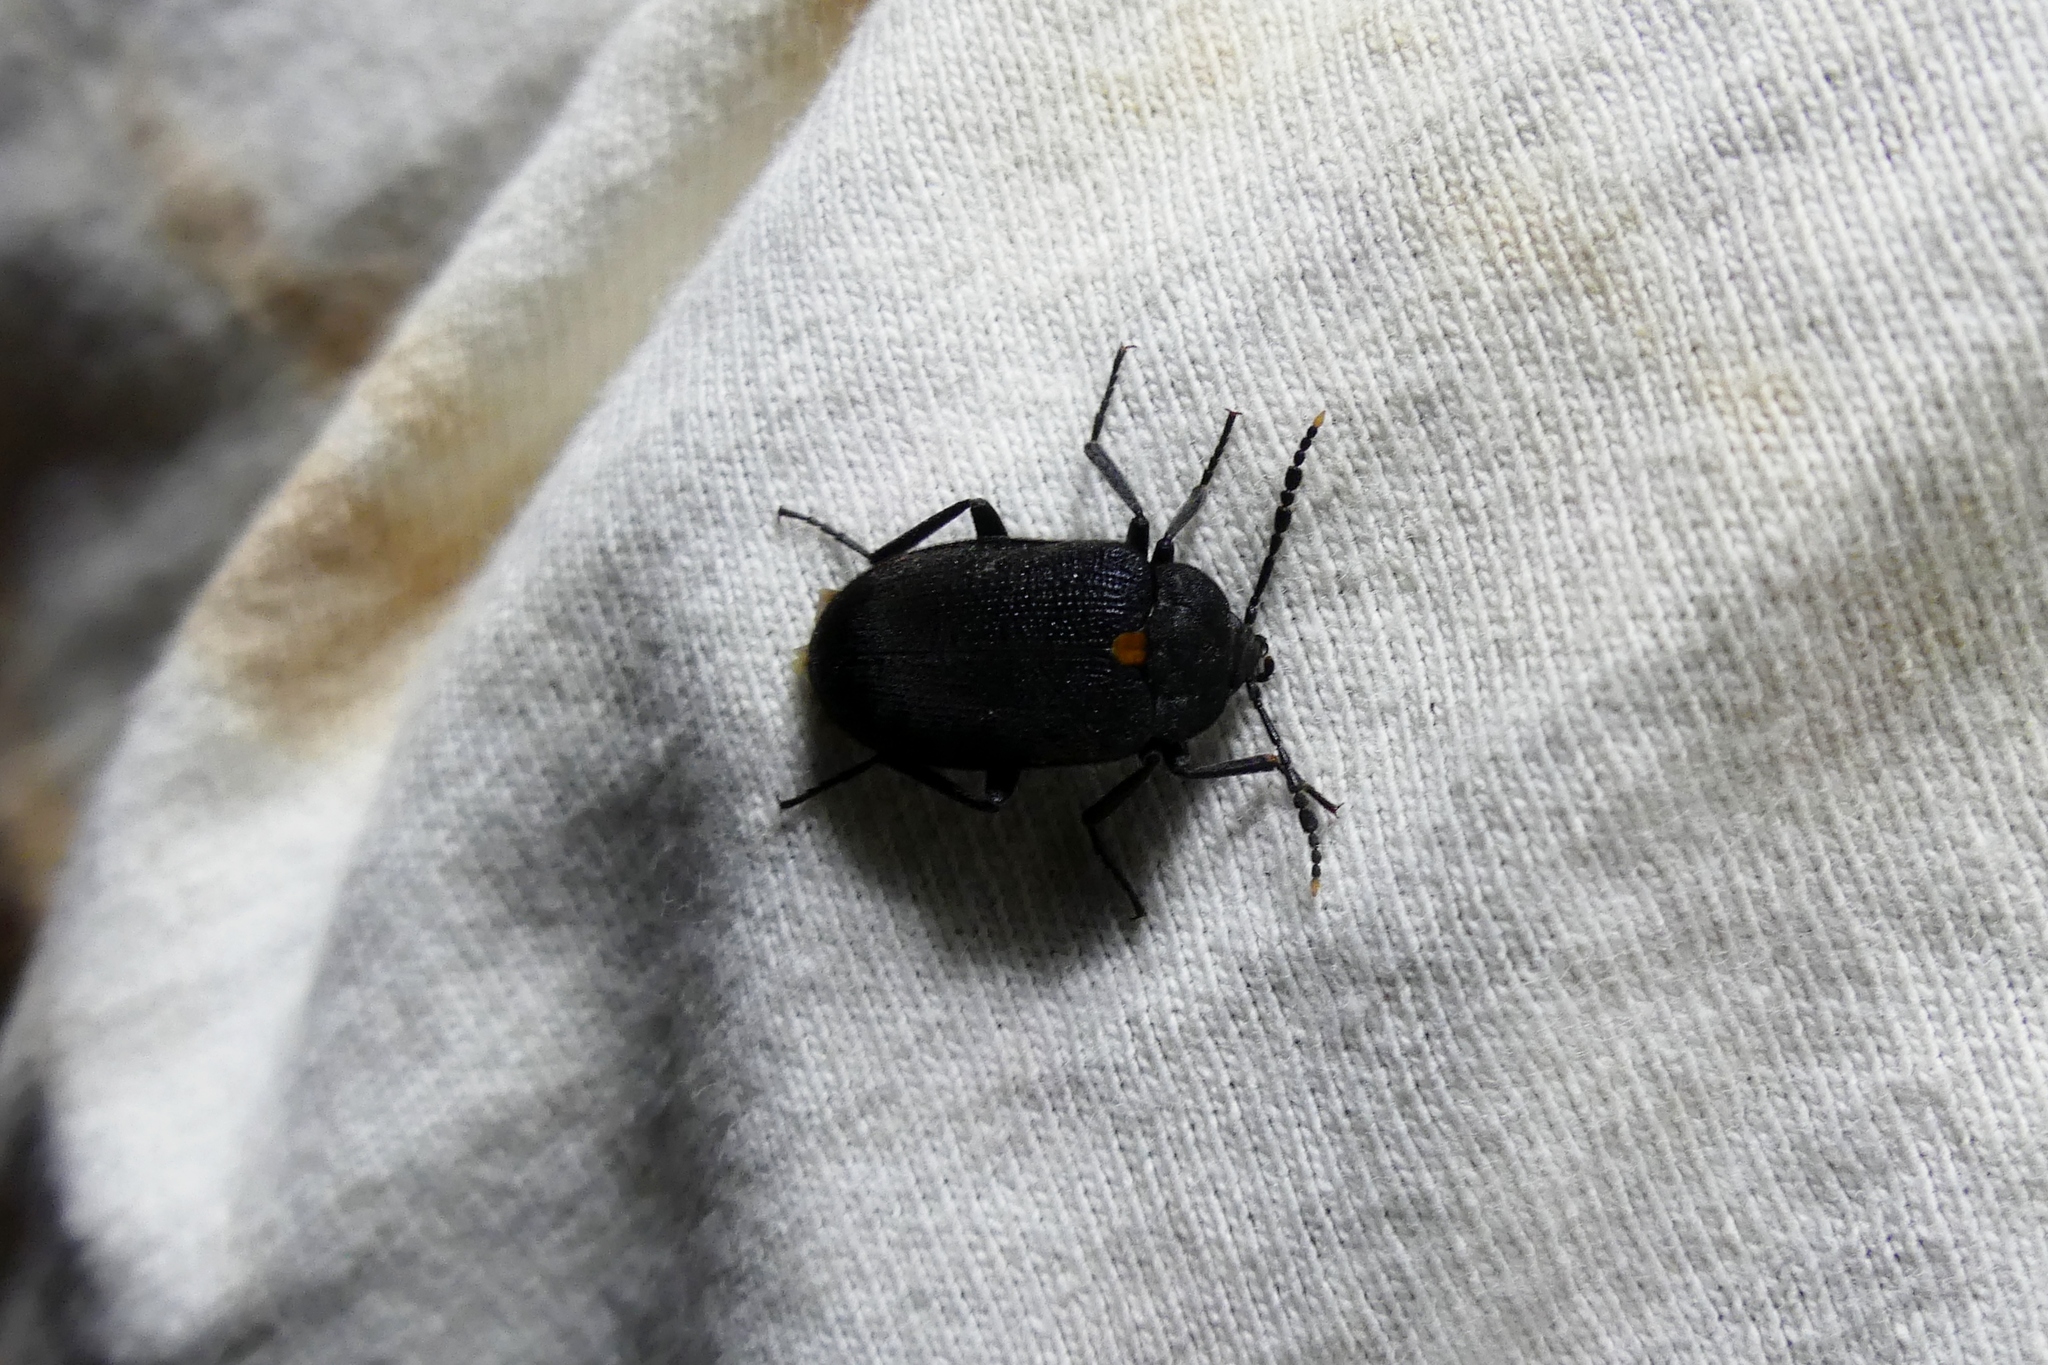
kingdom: Animalia
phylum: Arthropoda
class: Insecta
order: Coleoptera
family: Tetratomidae
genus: Penthe
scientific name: Penthe obliquata
